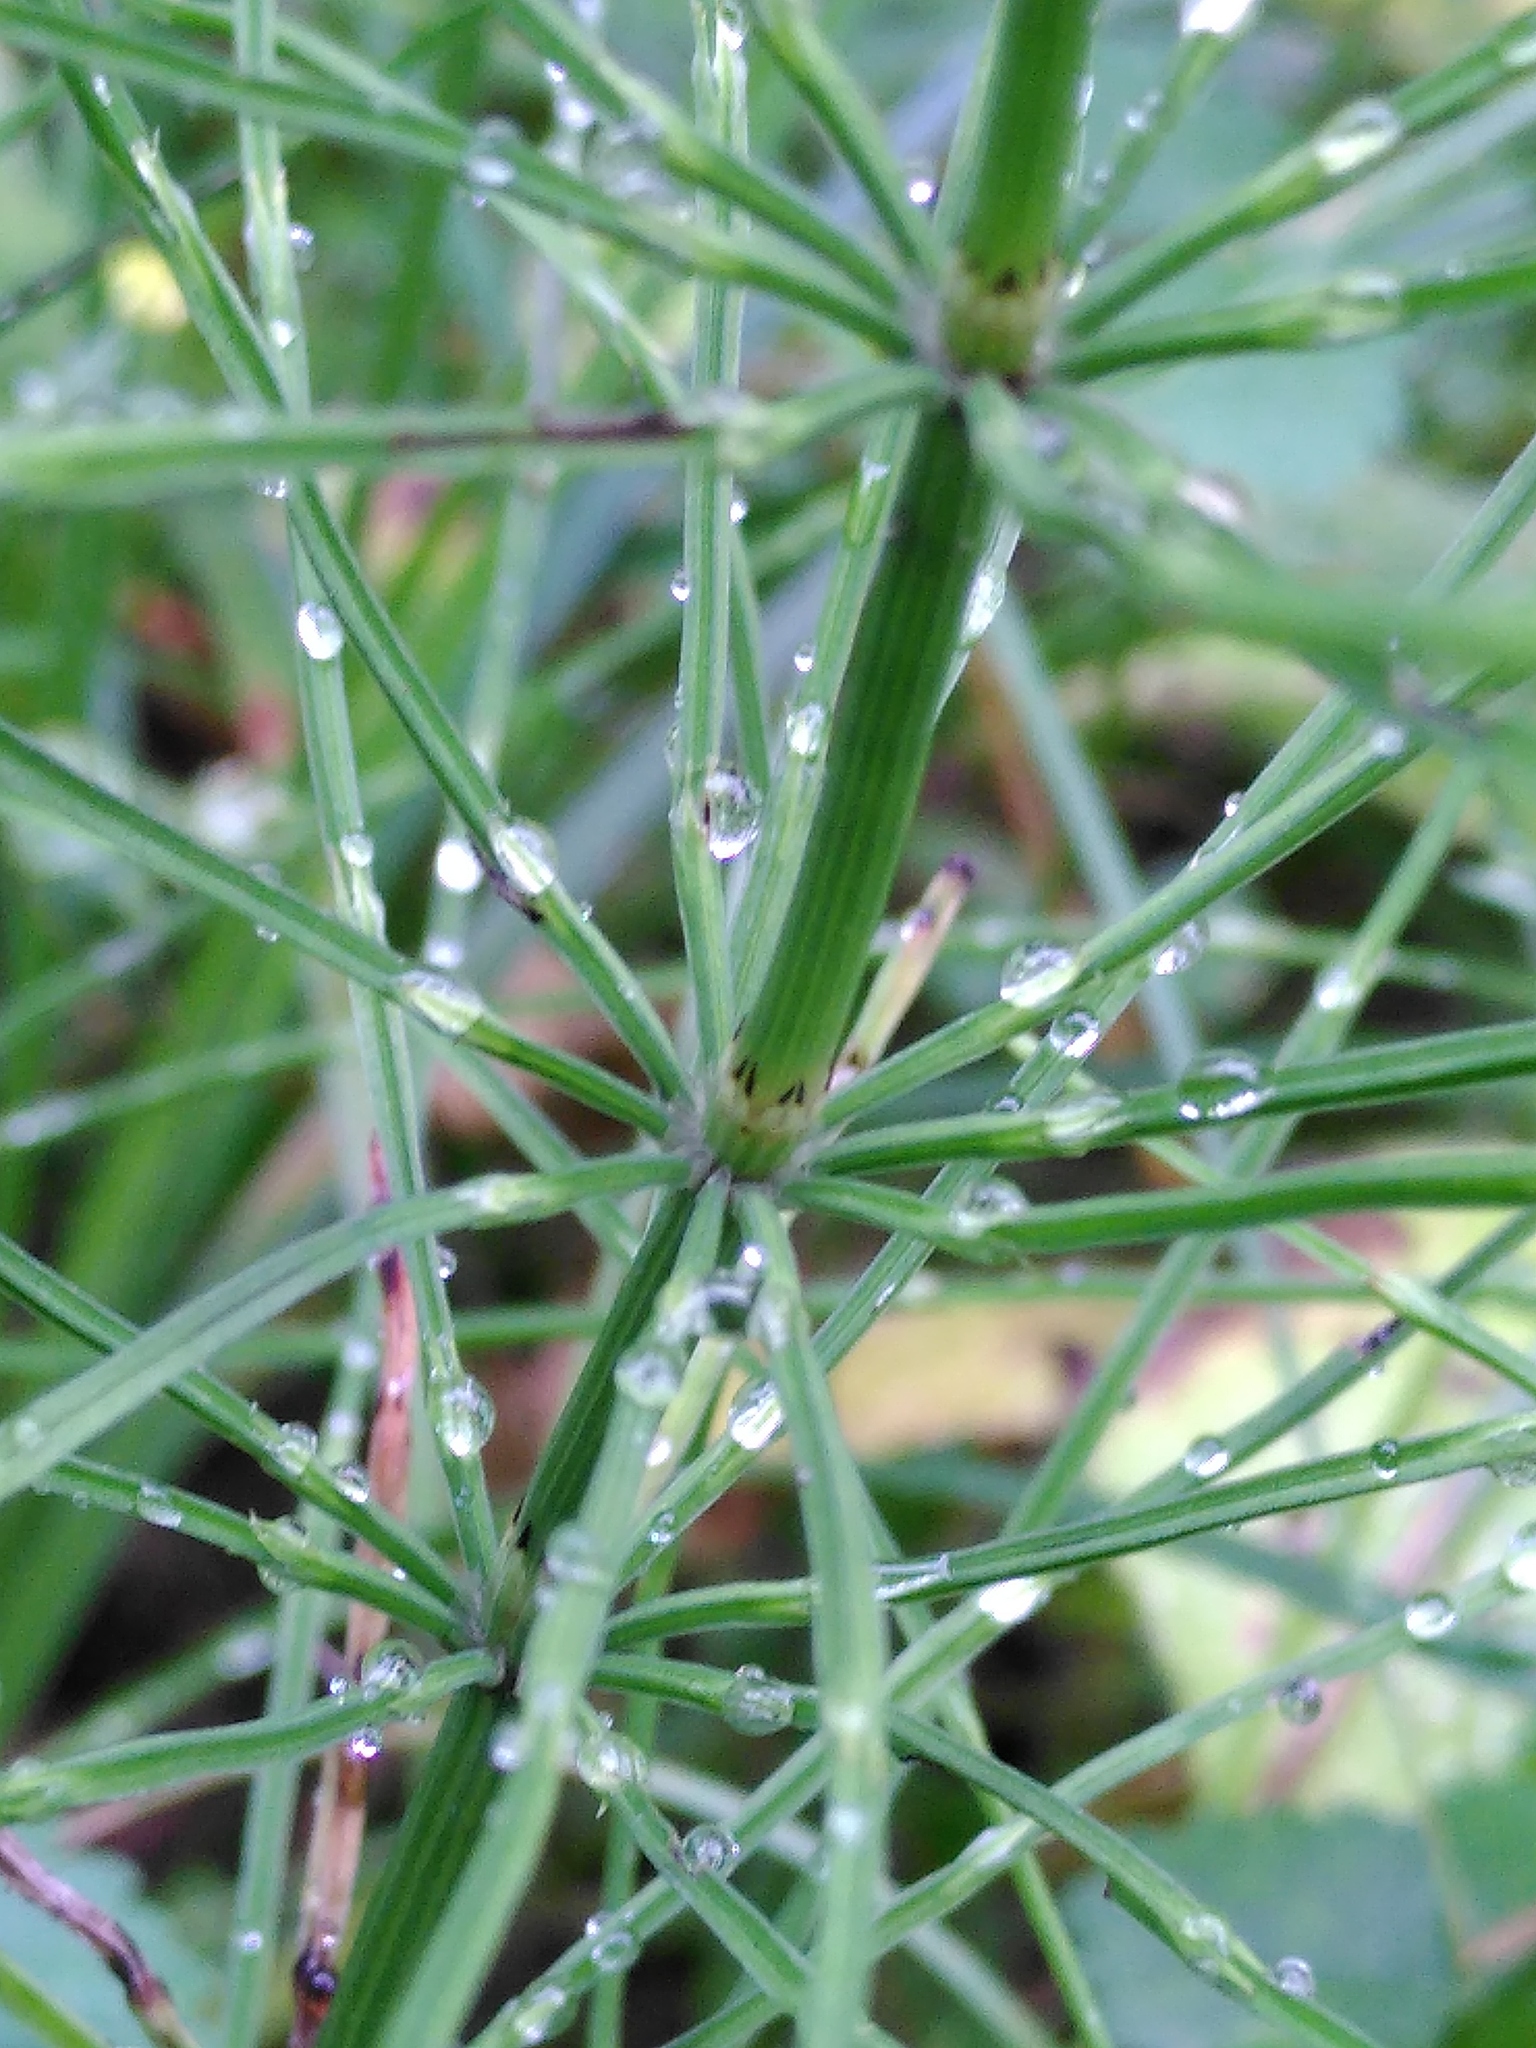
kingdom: Plantae
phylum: Tracheophyta
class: Polypodiopsida
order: Equisetales
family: Equisetaceae
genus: Equisetum
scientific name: Equisetum arvense
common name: Field horsetail
